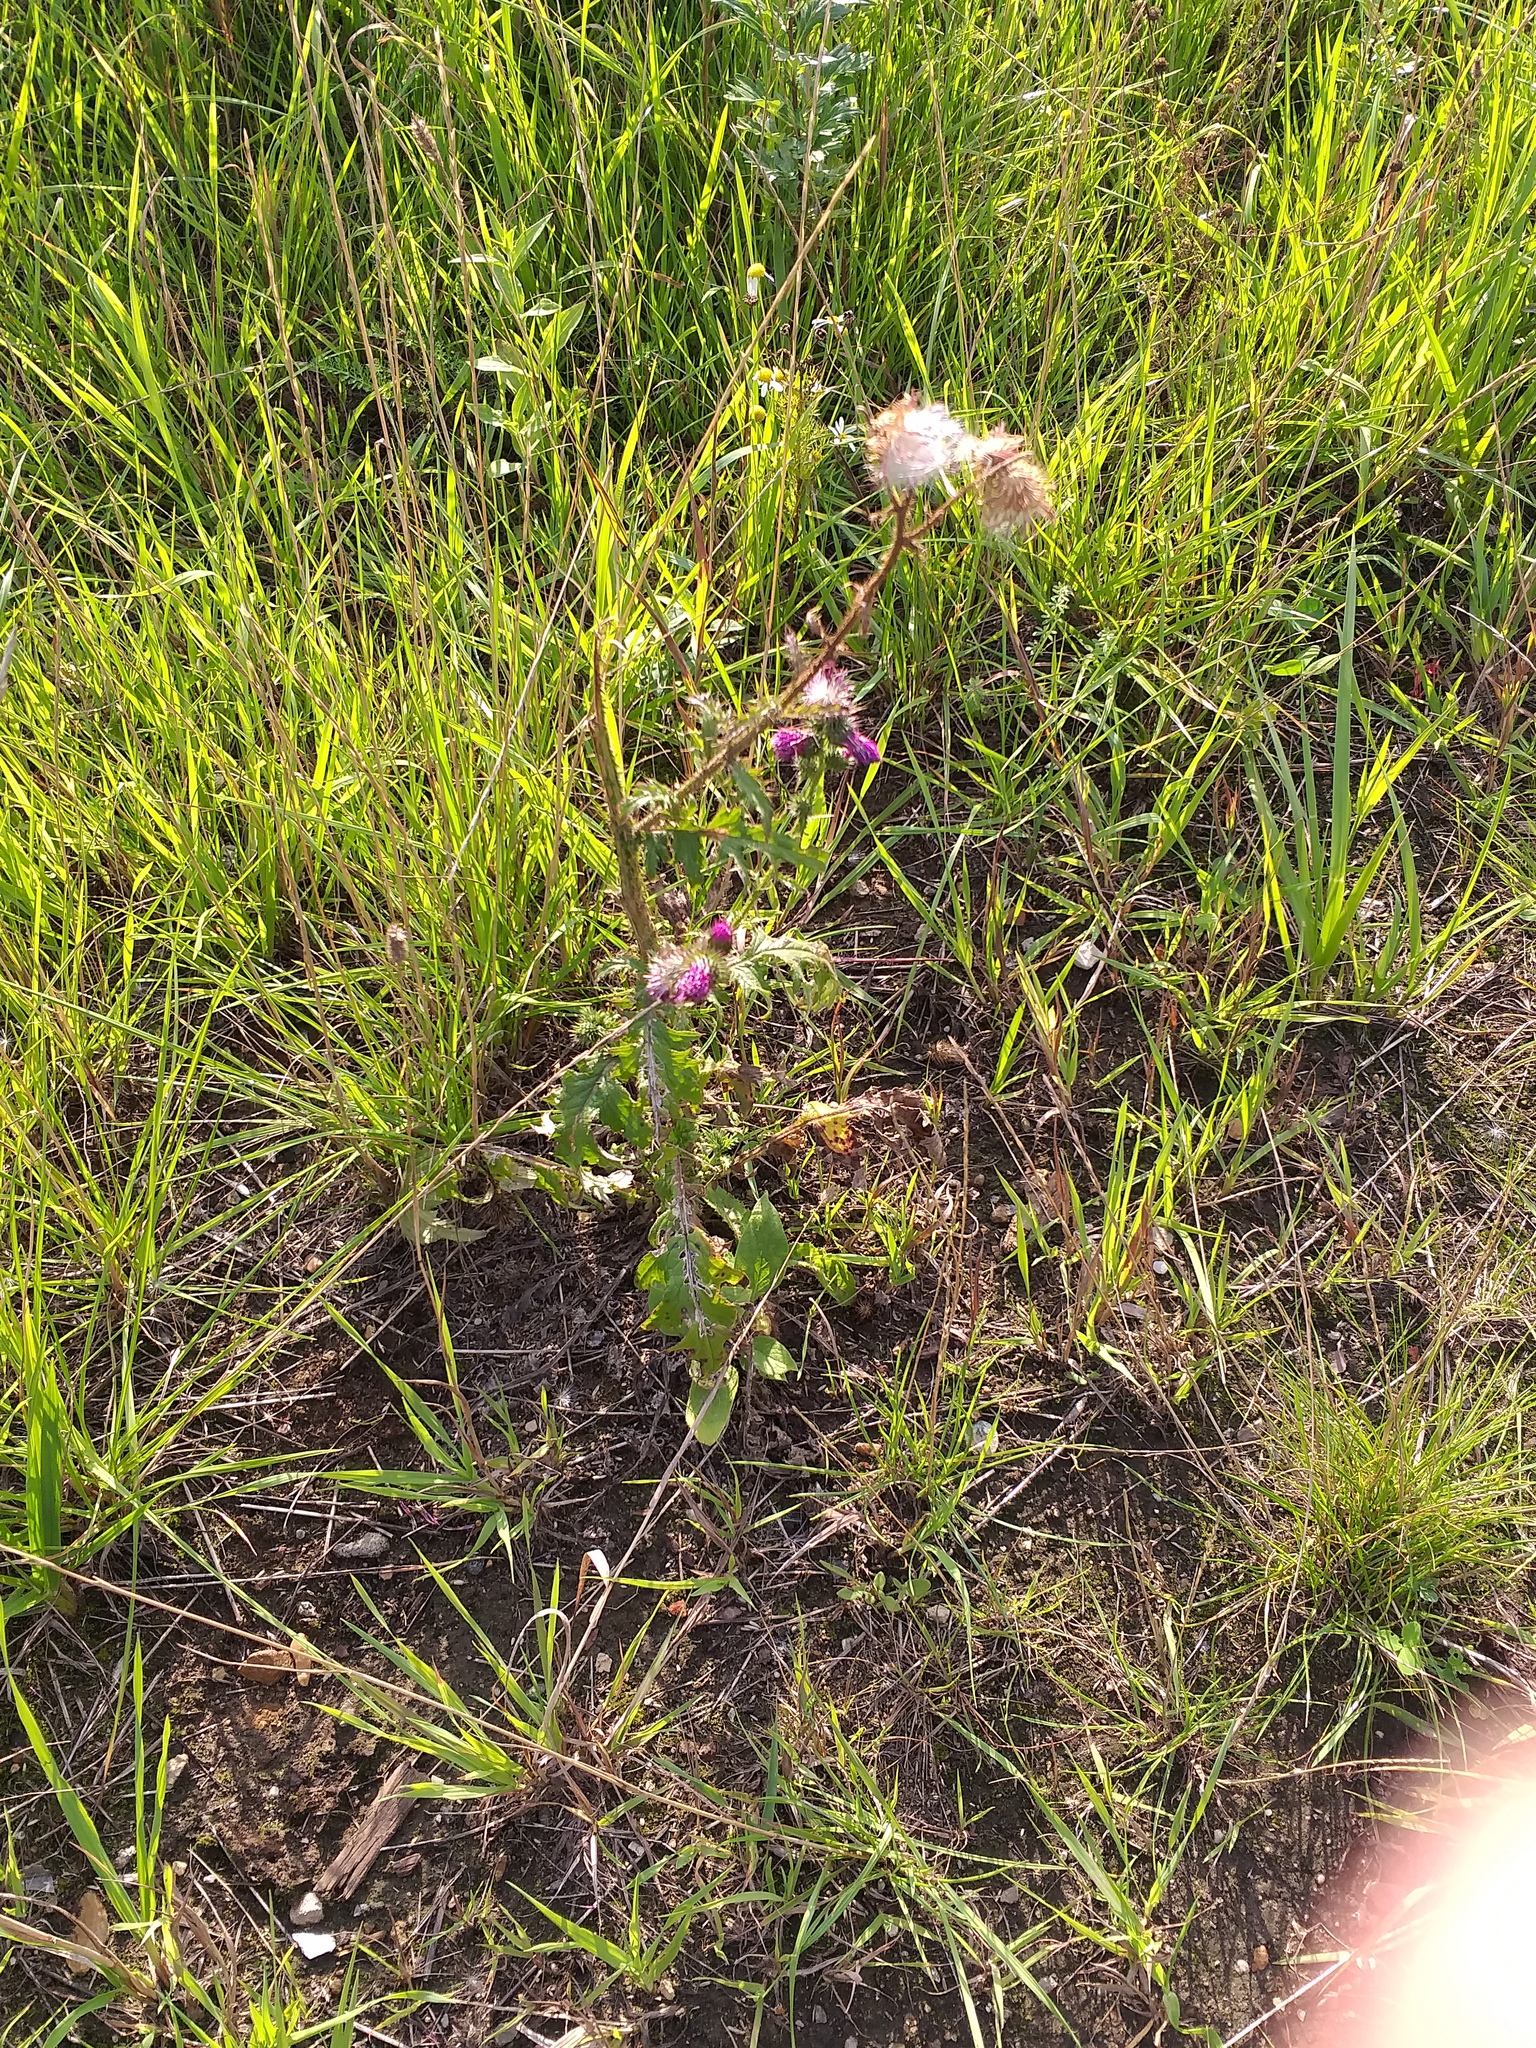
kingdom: Plantae
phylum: Tracheophyta
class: Magnoliopsida
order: Asterales
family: Asteraceae
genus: Carduus
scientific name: Carduus crispus
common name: Welted thistle
